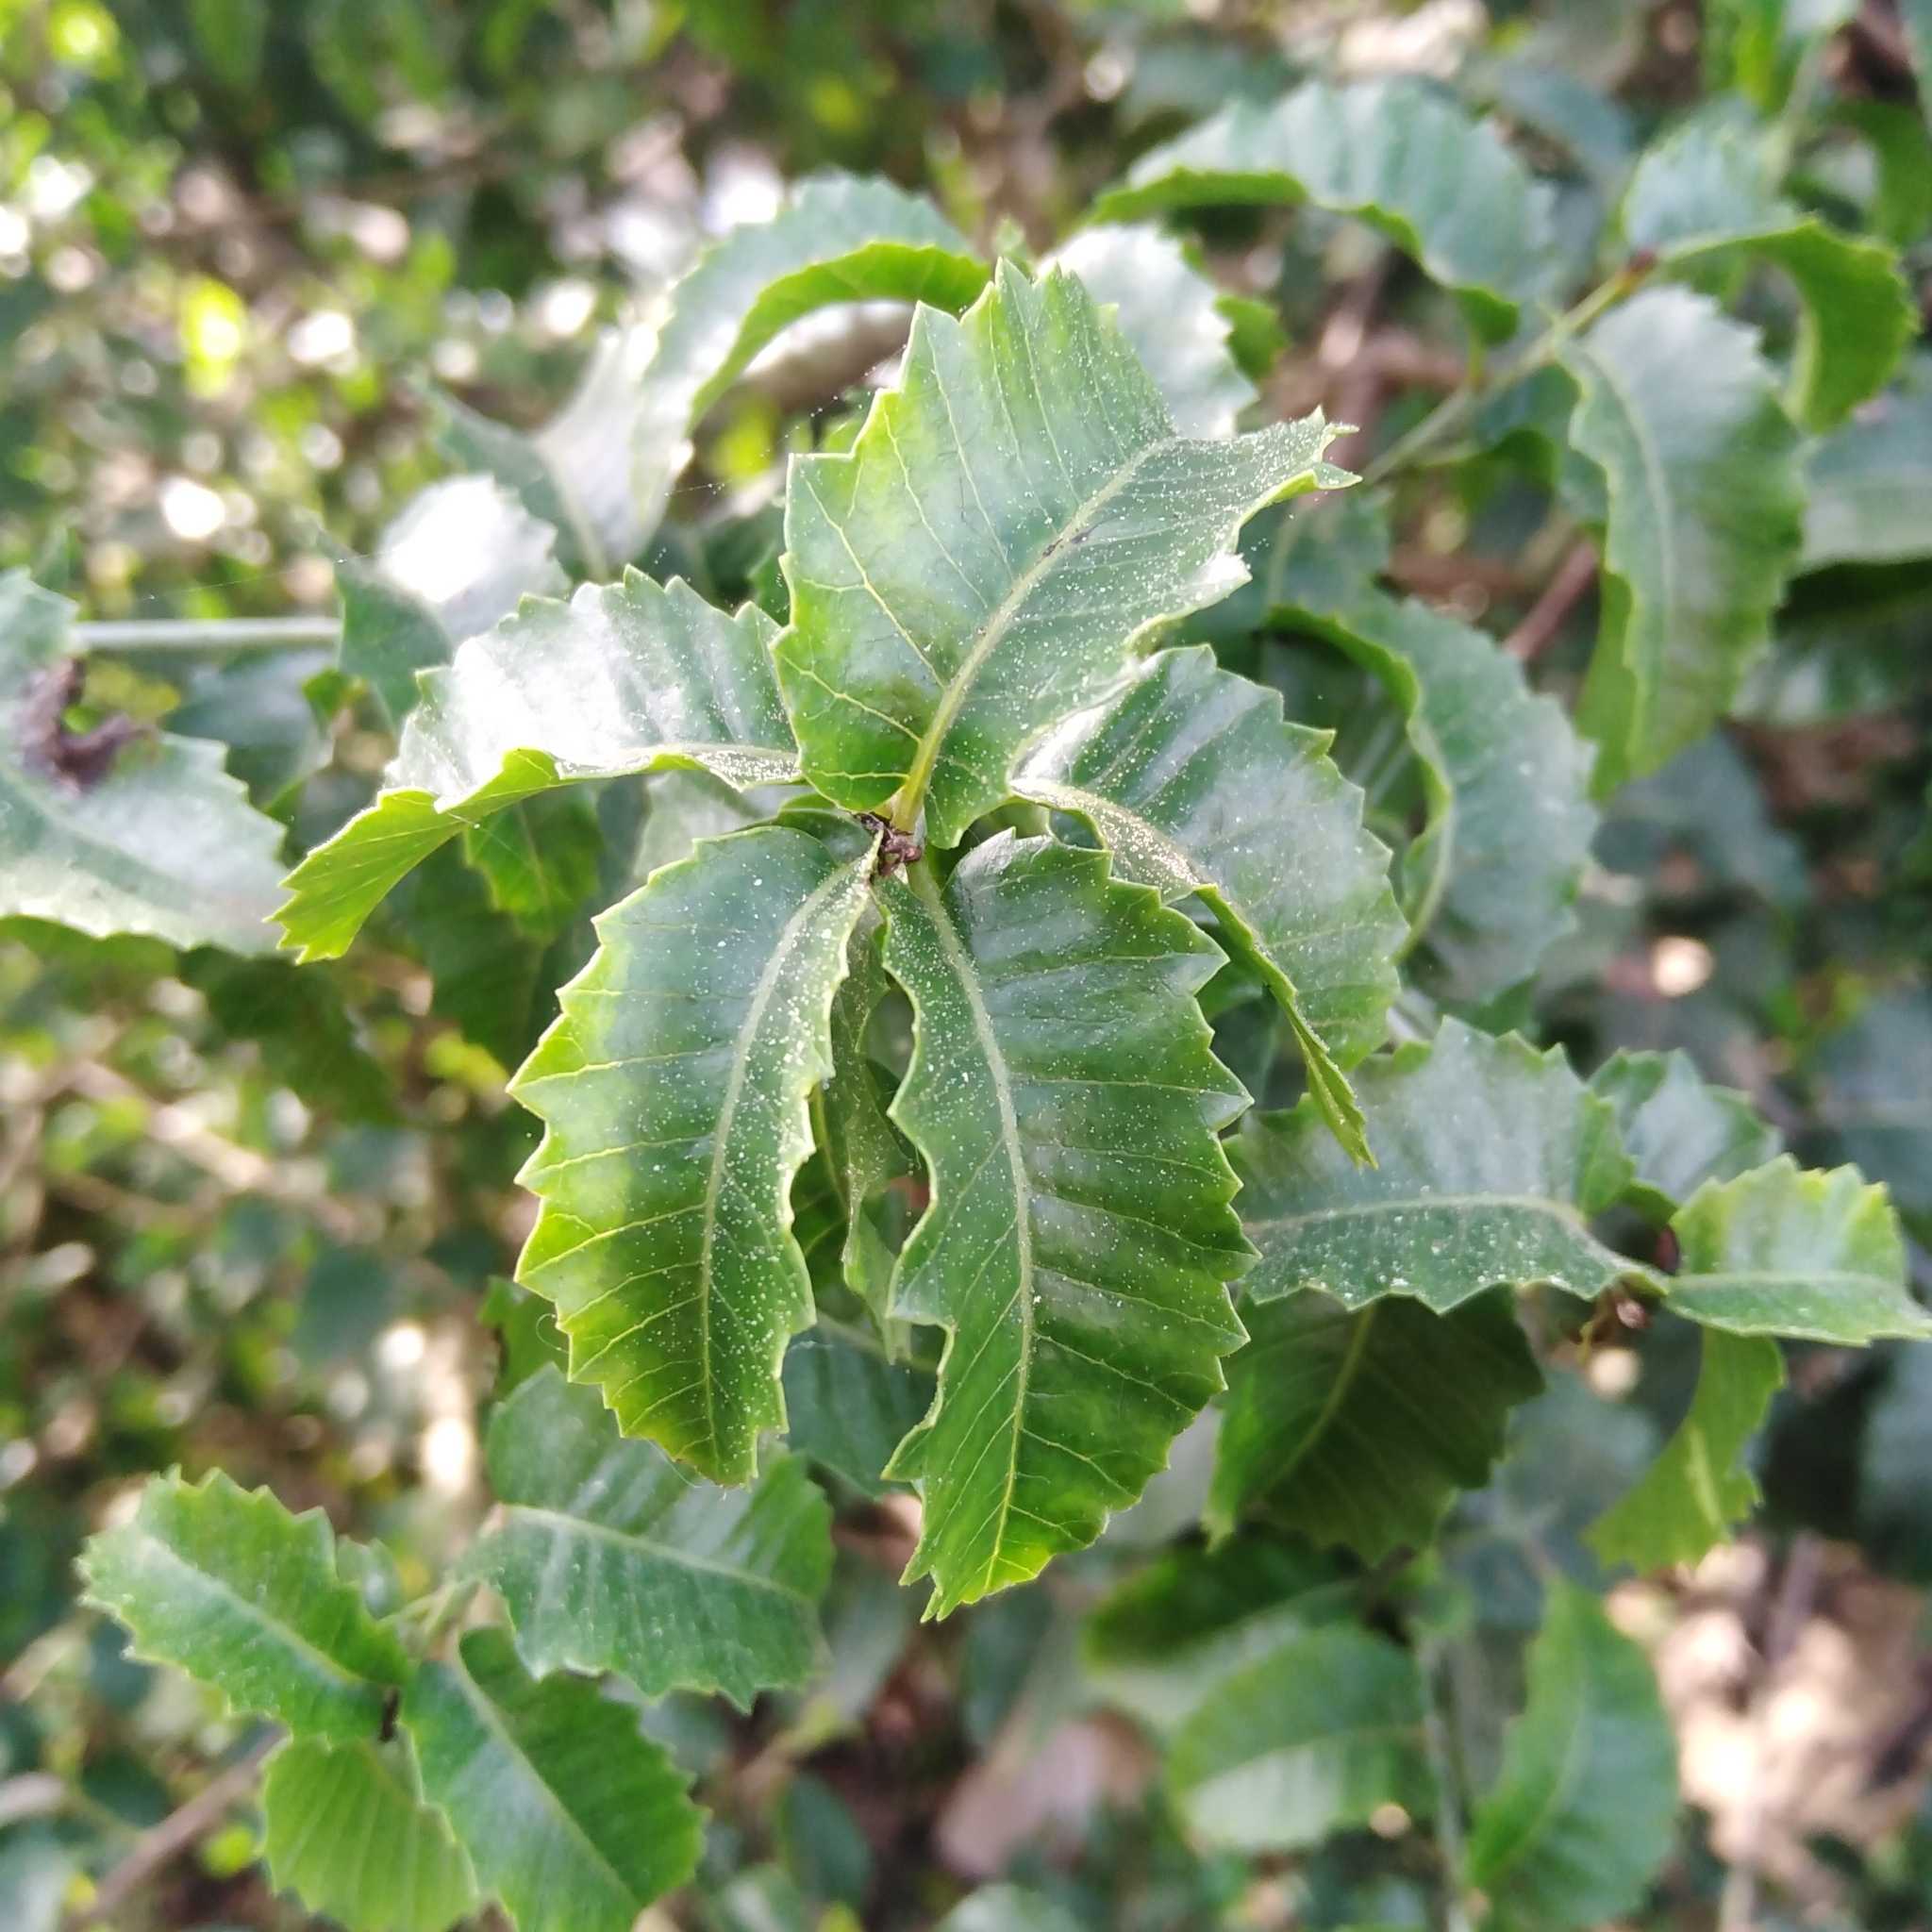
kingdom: Plantae
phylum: Tracheophyta
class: Magnoliopsida
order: Sapindales
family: Anacardiaceae
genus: Schinus
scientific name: Schinus latifolia
